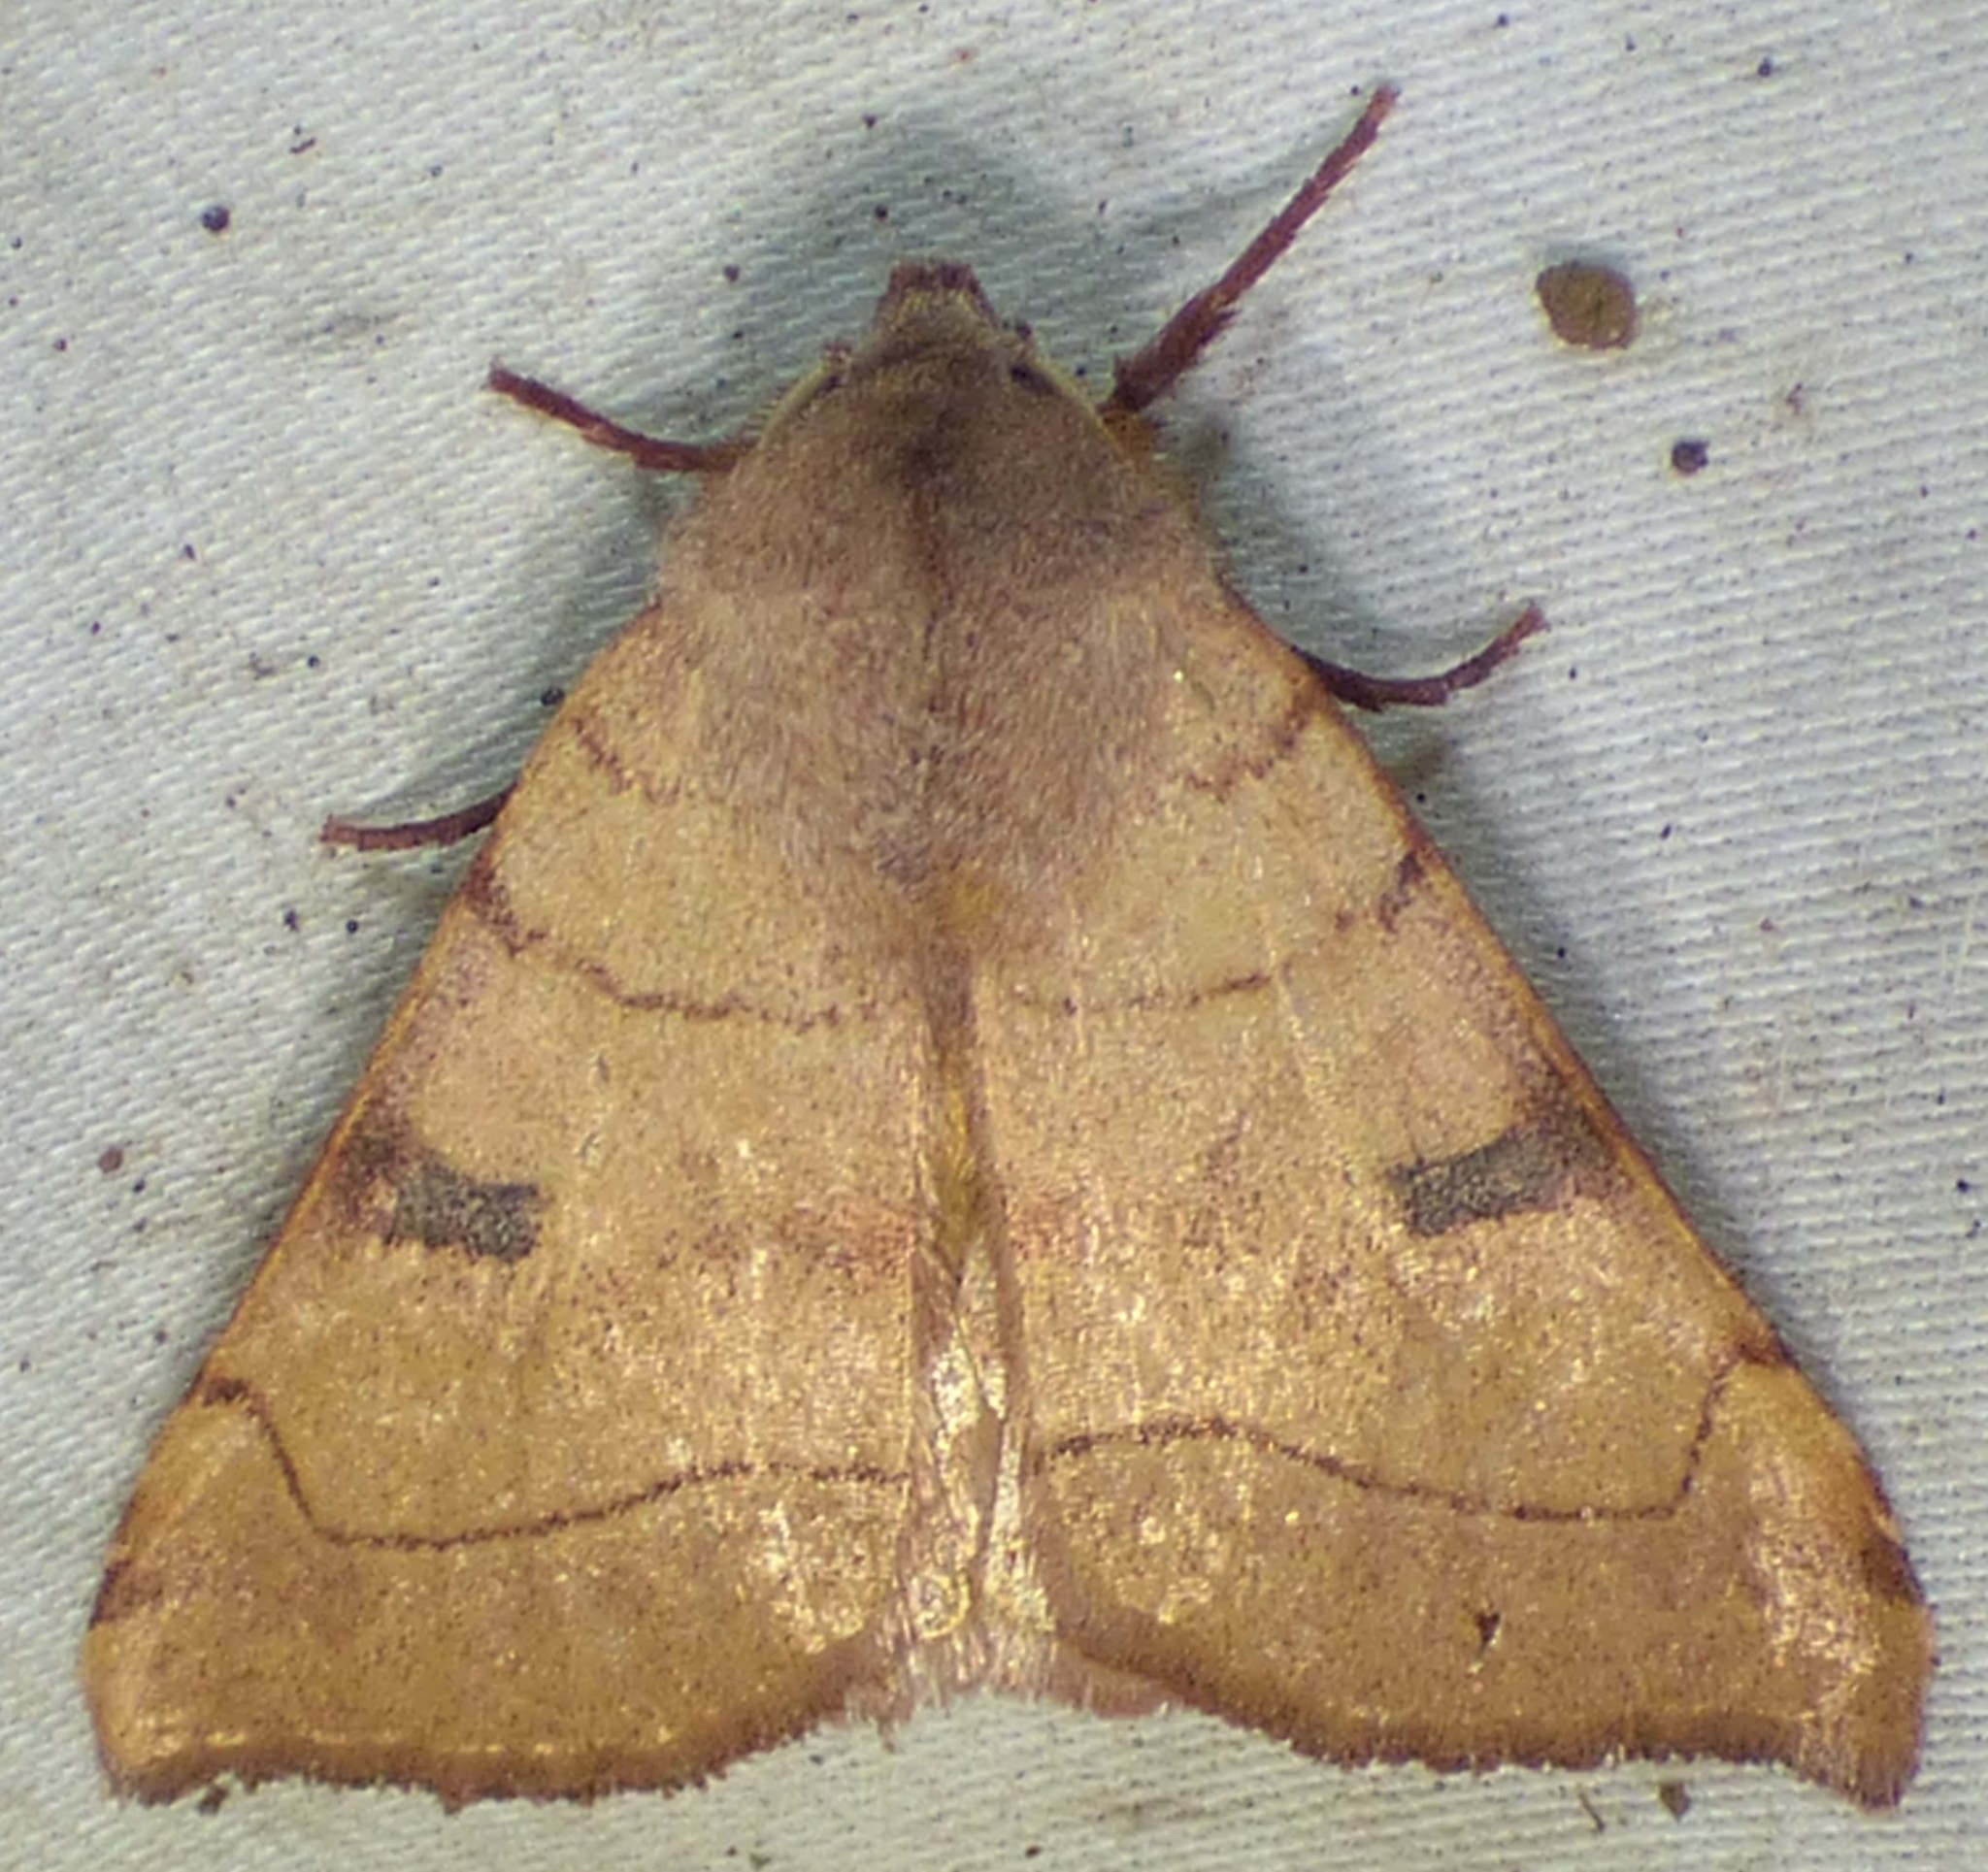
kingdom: Animalia
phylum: Arthropoda
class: Insecta
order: Lepidoptera
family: Noctuidae
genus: Choephora
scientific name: Choephora fungorum
